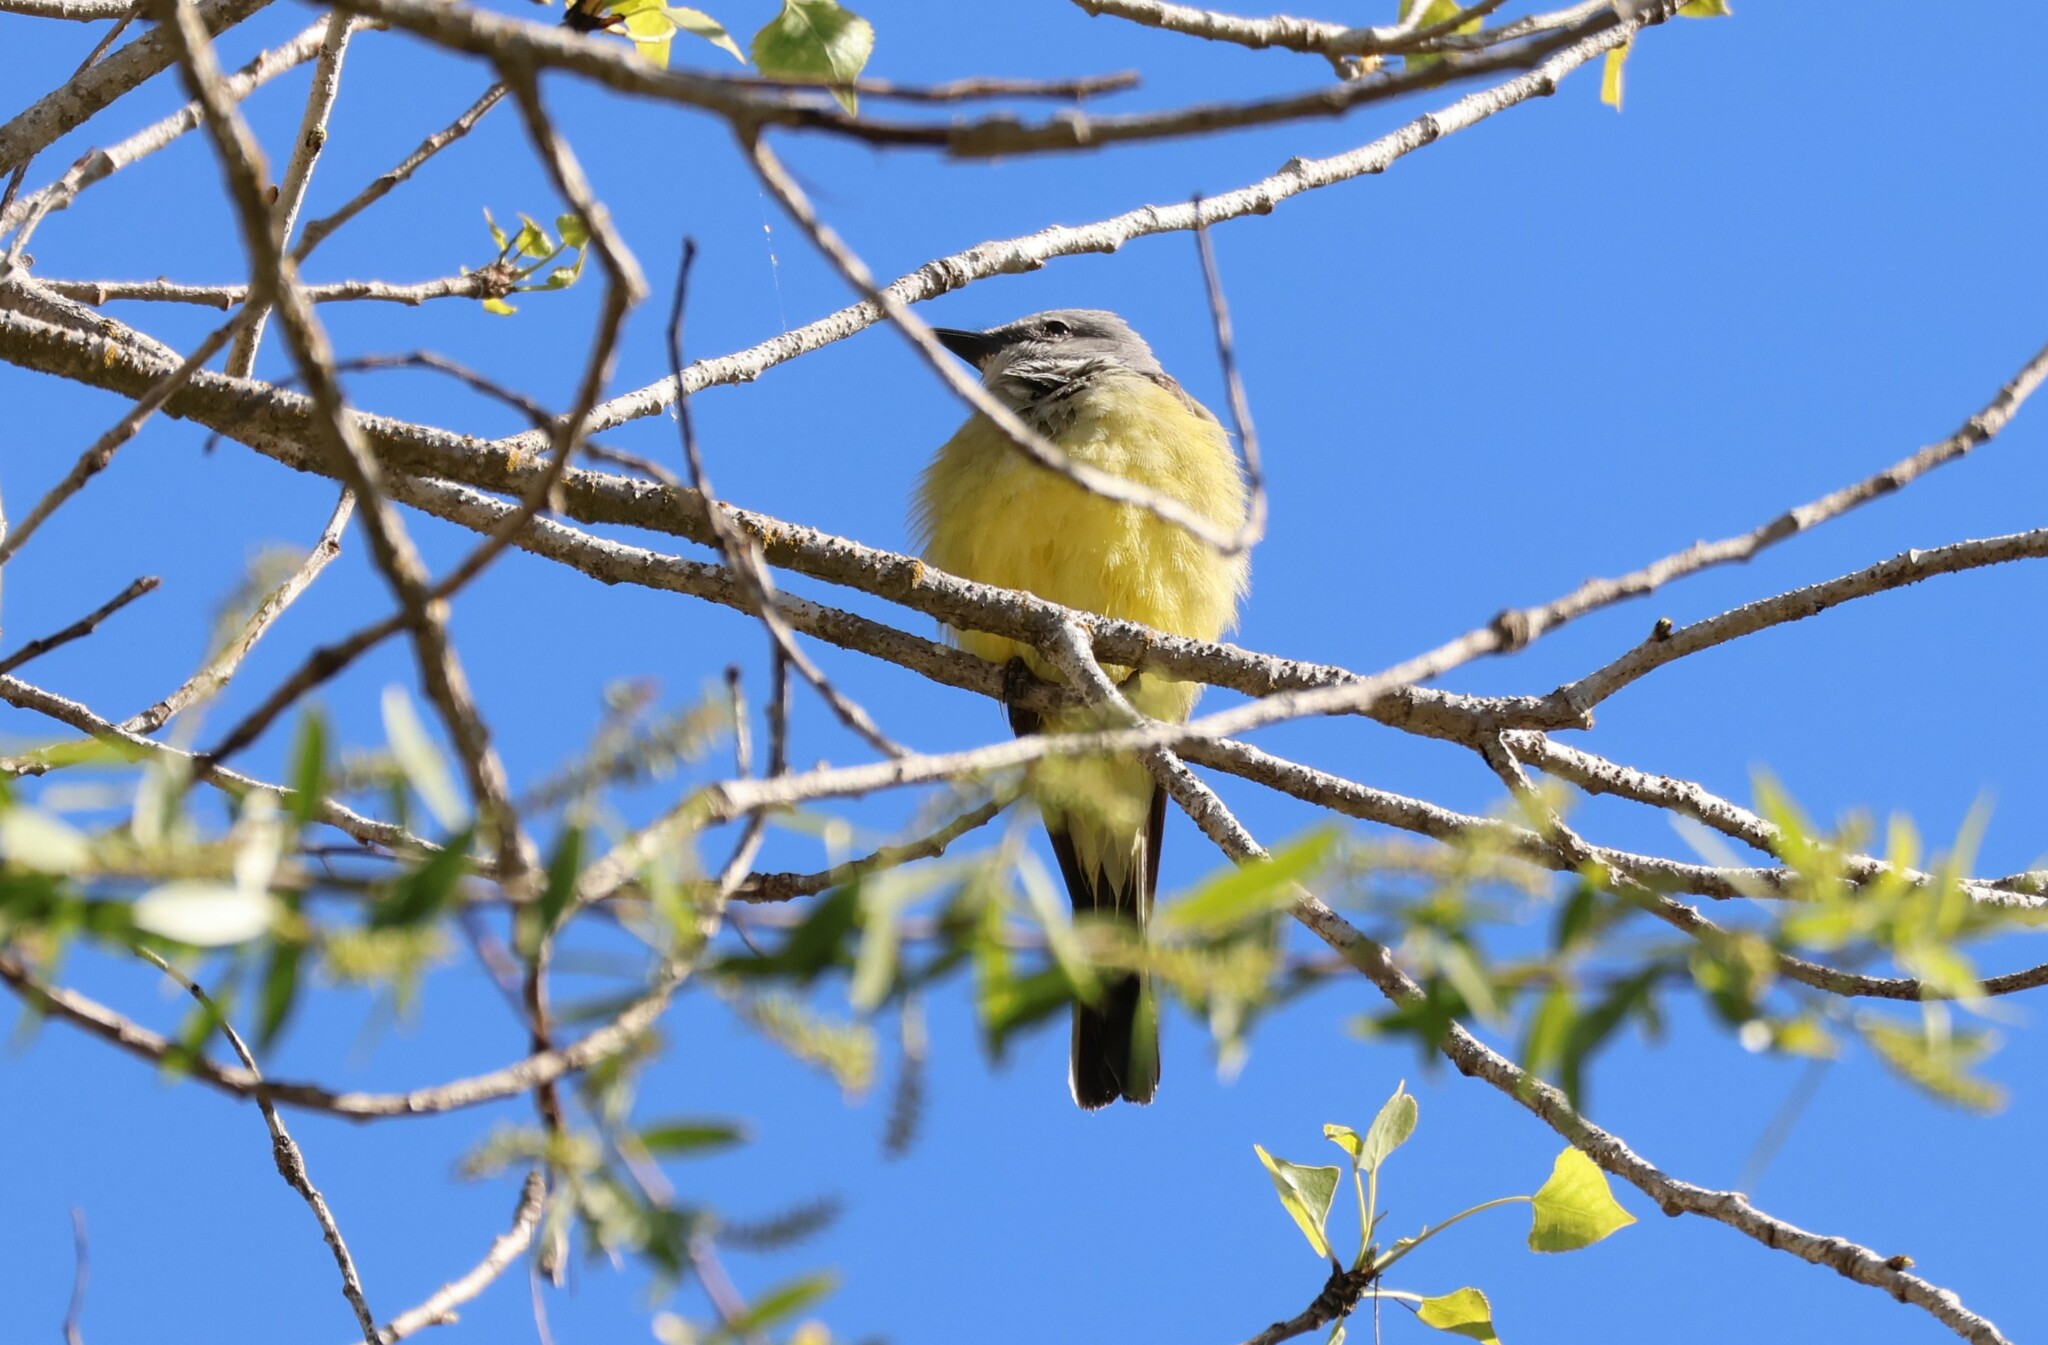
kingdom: Animalia
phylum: Chordata
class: Aves
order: Passeriformes
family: Tyrannidae
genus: Tyrannus
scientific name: Tyrannus verticalis
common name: Western kingbird
